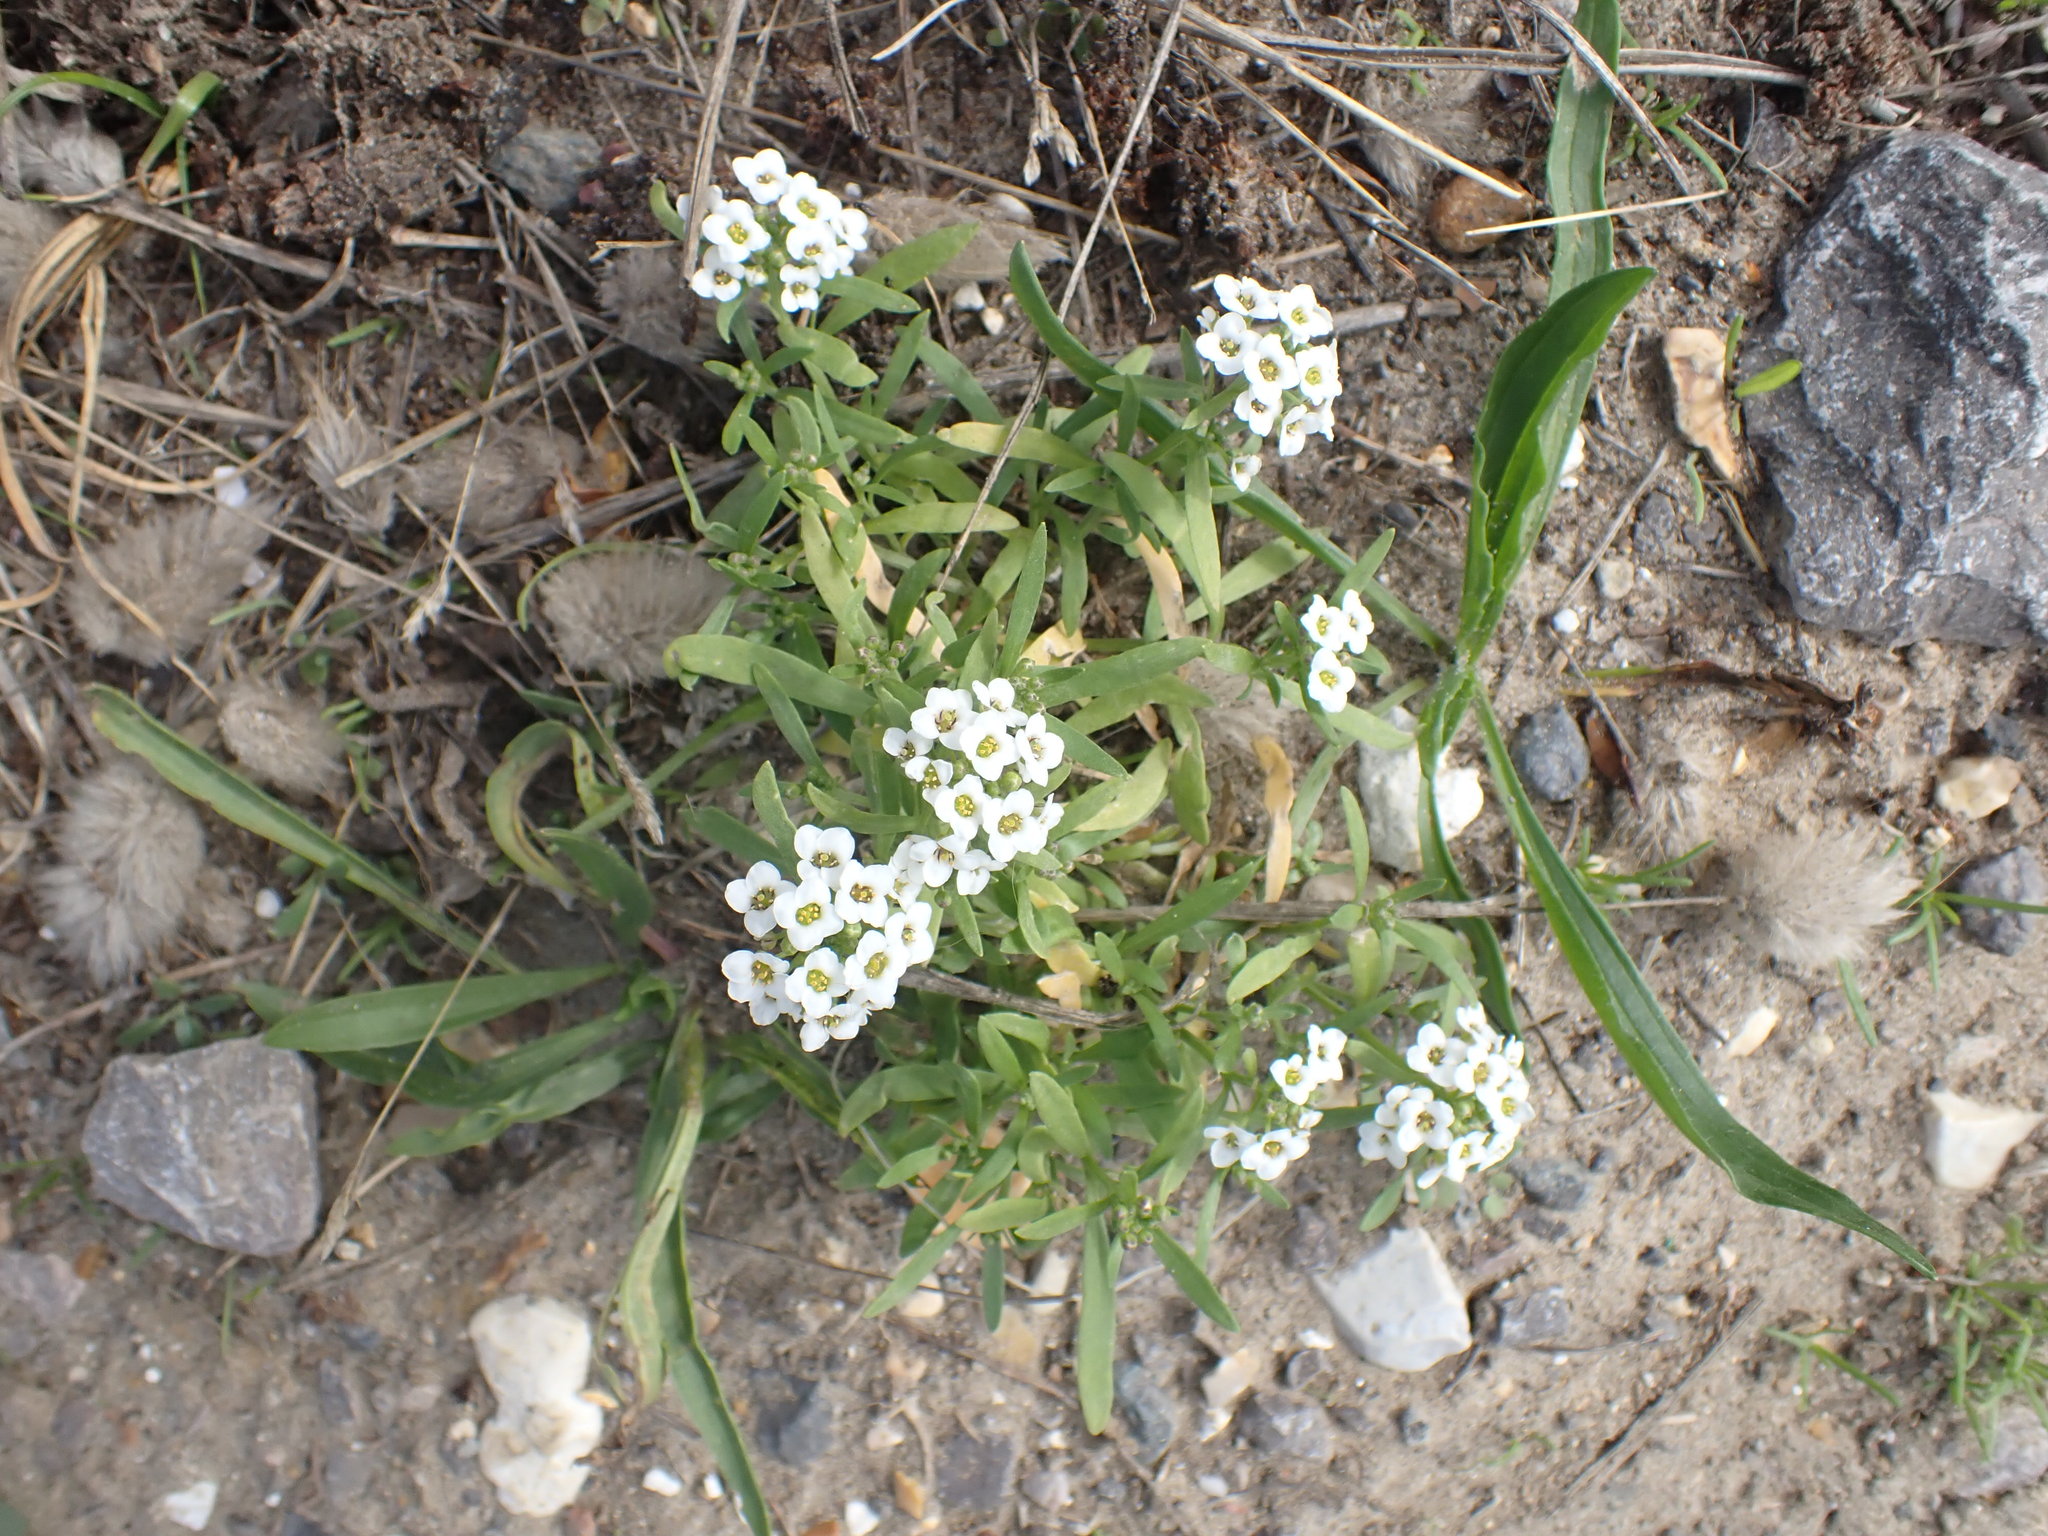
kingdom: Plantae
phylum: Tracheophyta
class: Magnoliopsida
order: Brassicales
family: Brassicaceae
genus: Lobularia
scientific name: Lobularia maritima
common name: Sweet alison
